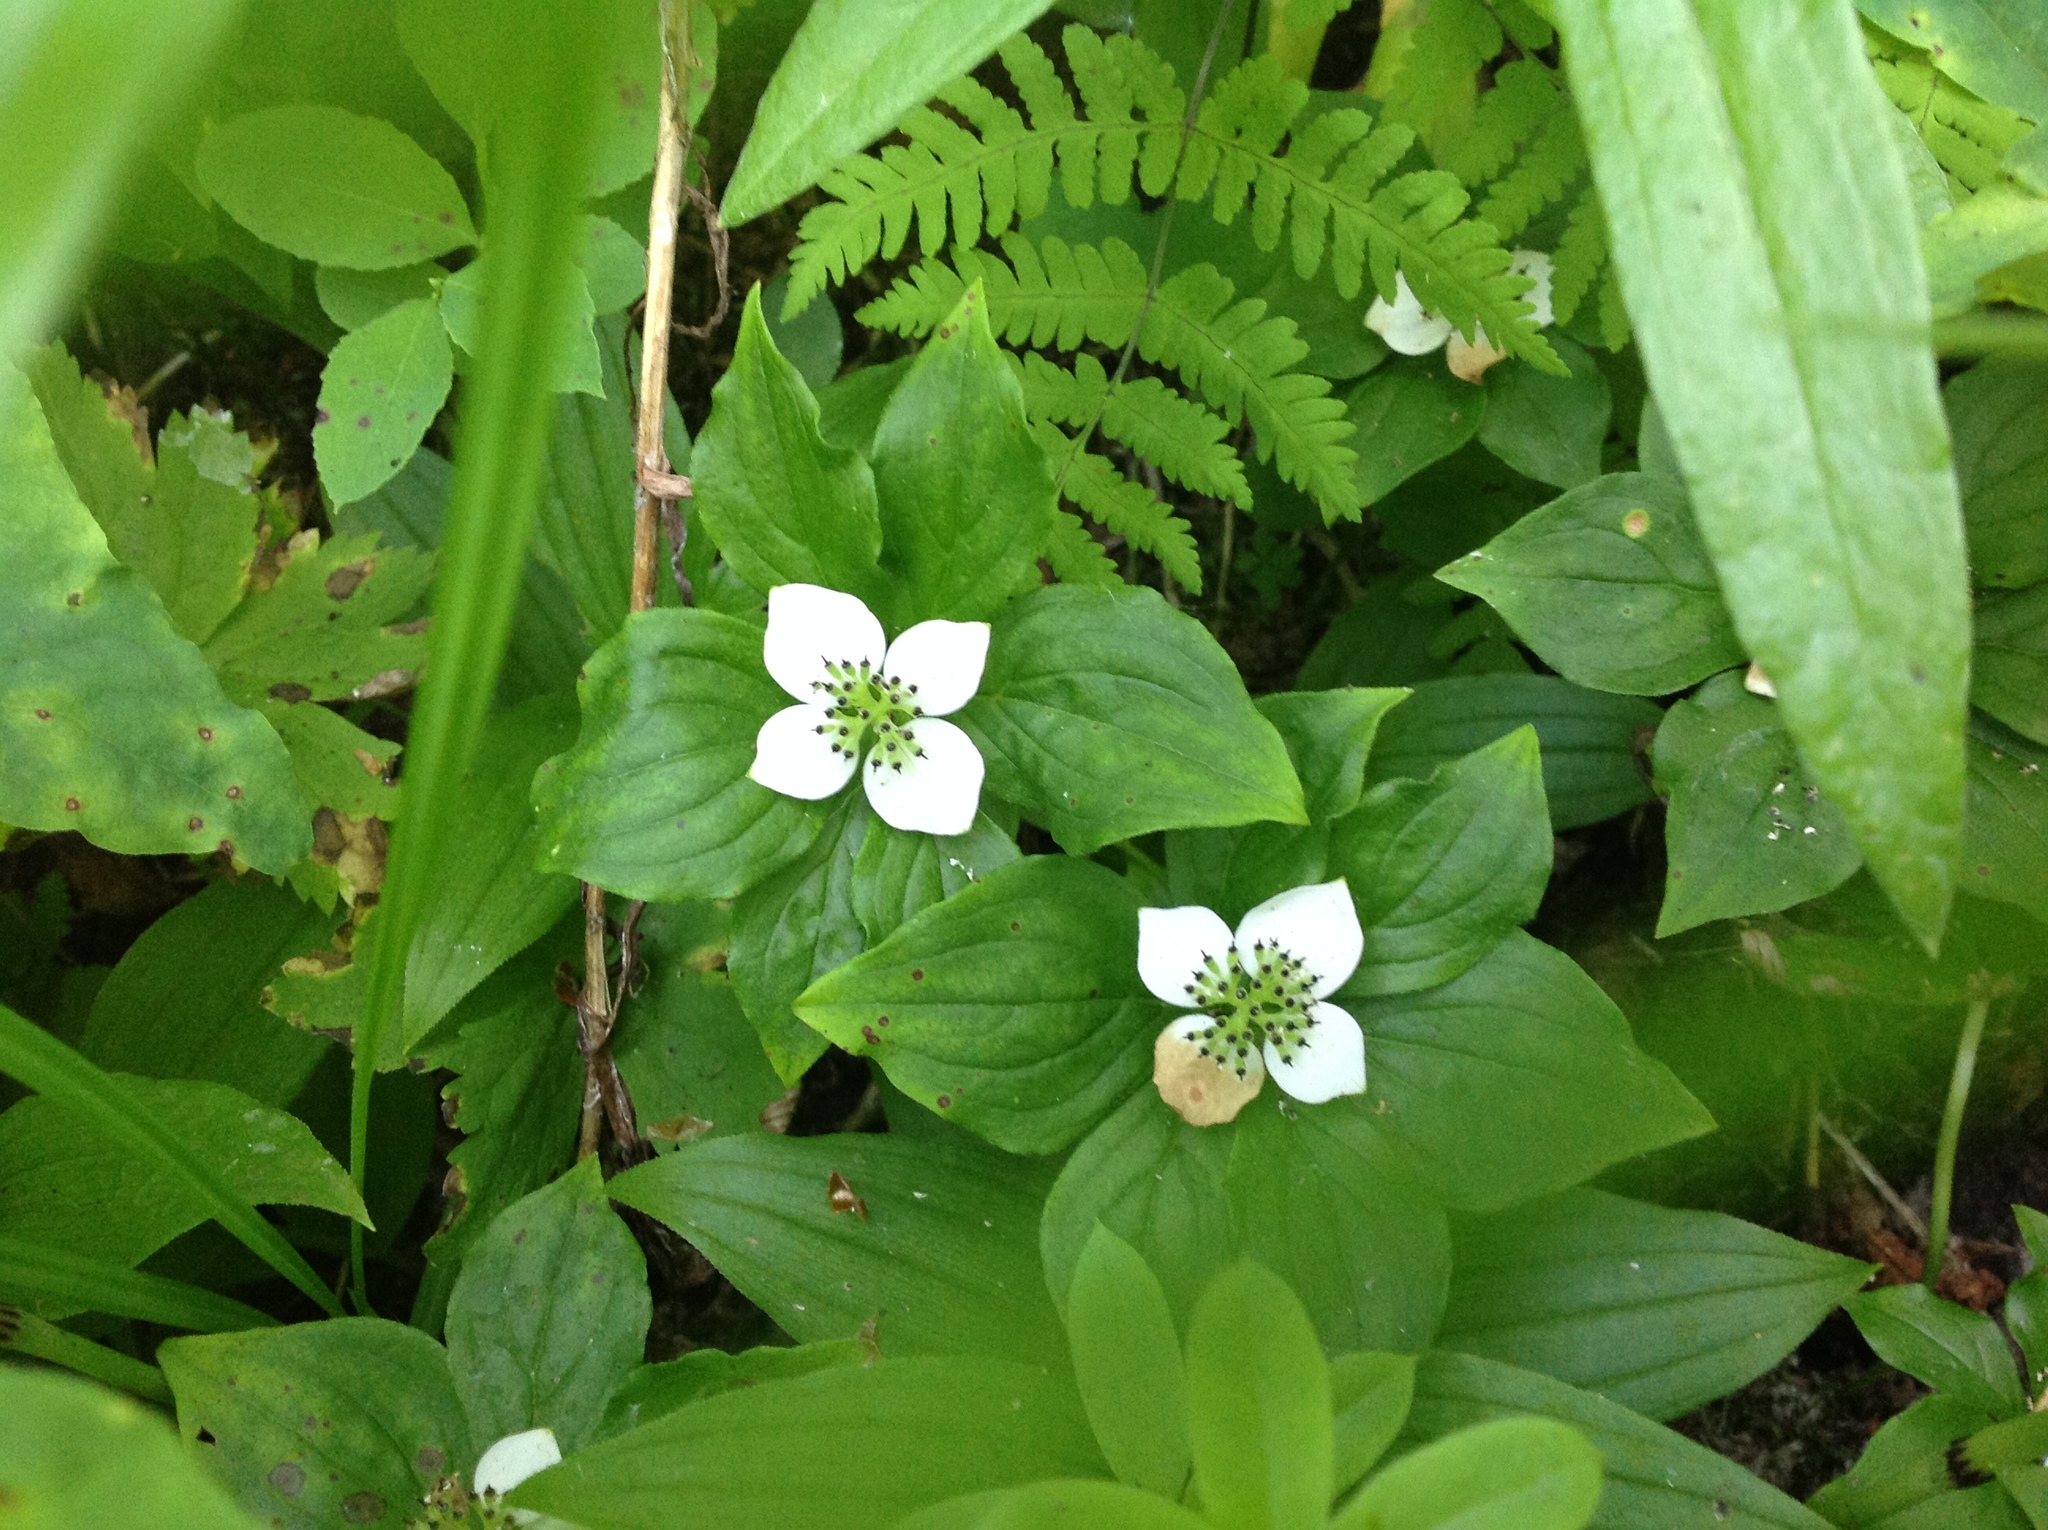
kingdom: Plantae
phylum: Tracheophyta
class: Magnoliopsida
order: Cornales
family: Cornaceae
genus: Cornus
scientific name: Cornus unalaschkensis
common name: Alaska bunchberry
